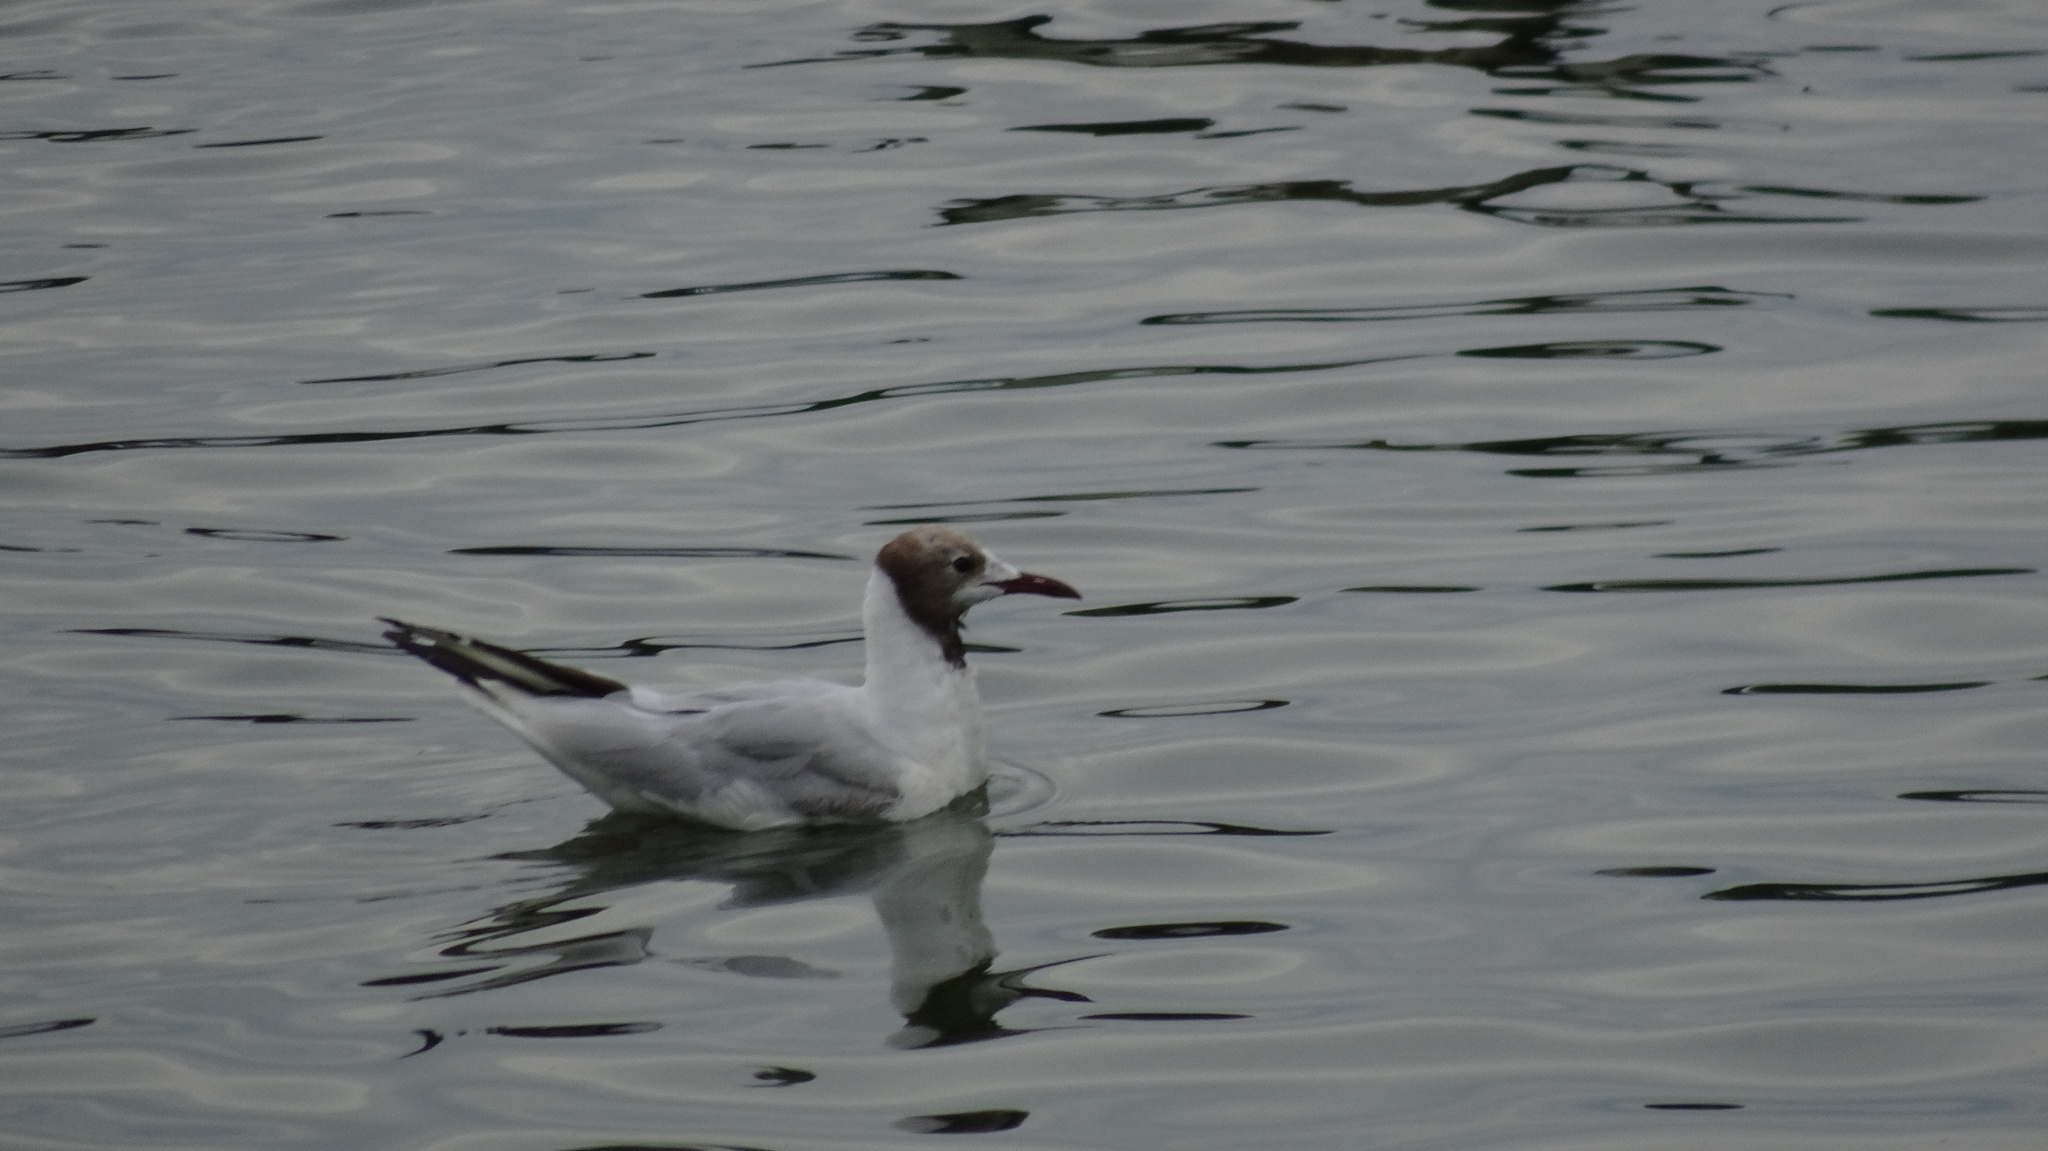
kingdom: Animalia
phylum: Chordata
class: Aves
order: Charadriiformes
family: Laridae
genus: Chroicocephalus
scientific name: Chroicocephalus ridibundus
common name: Black-headed gull
